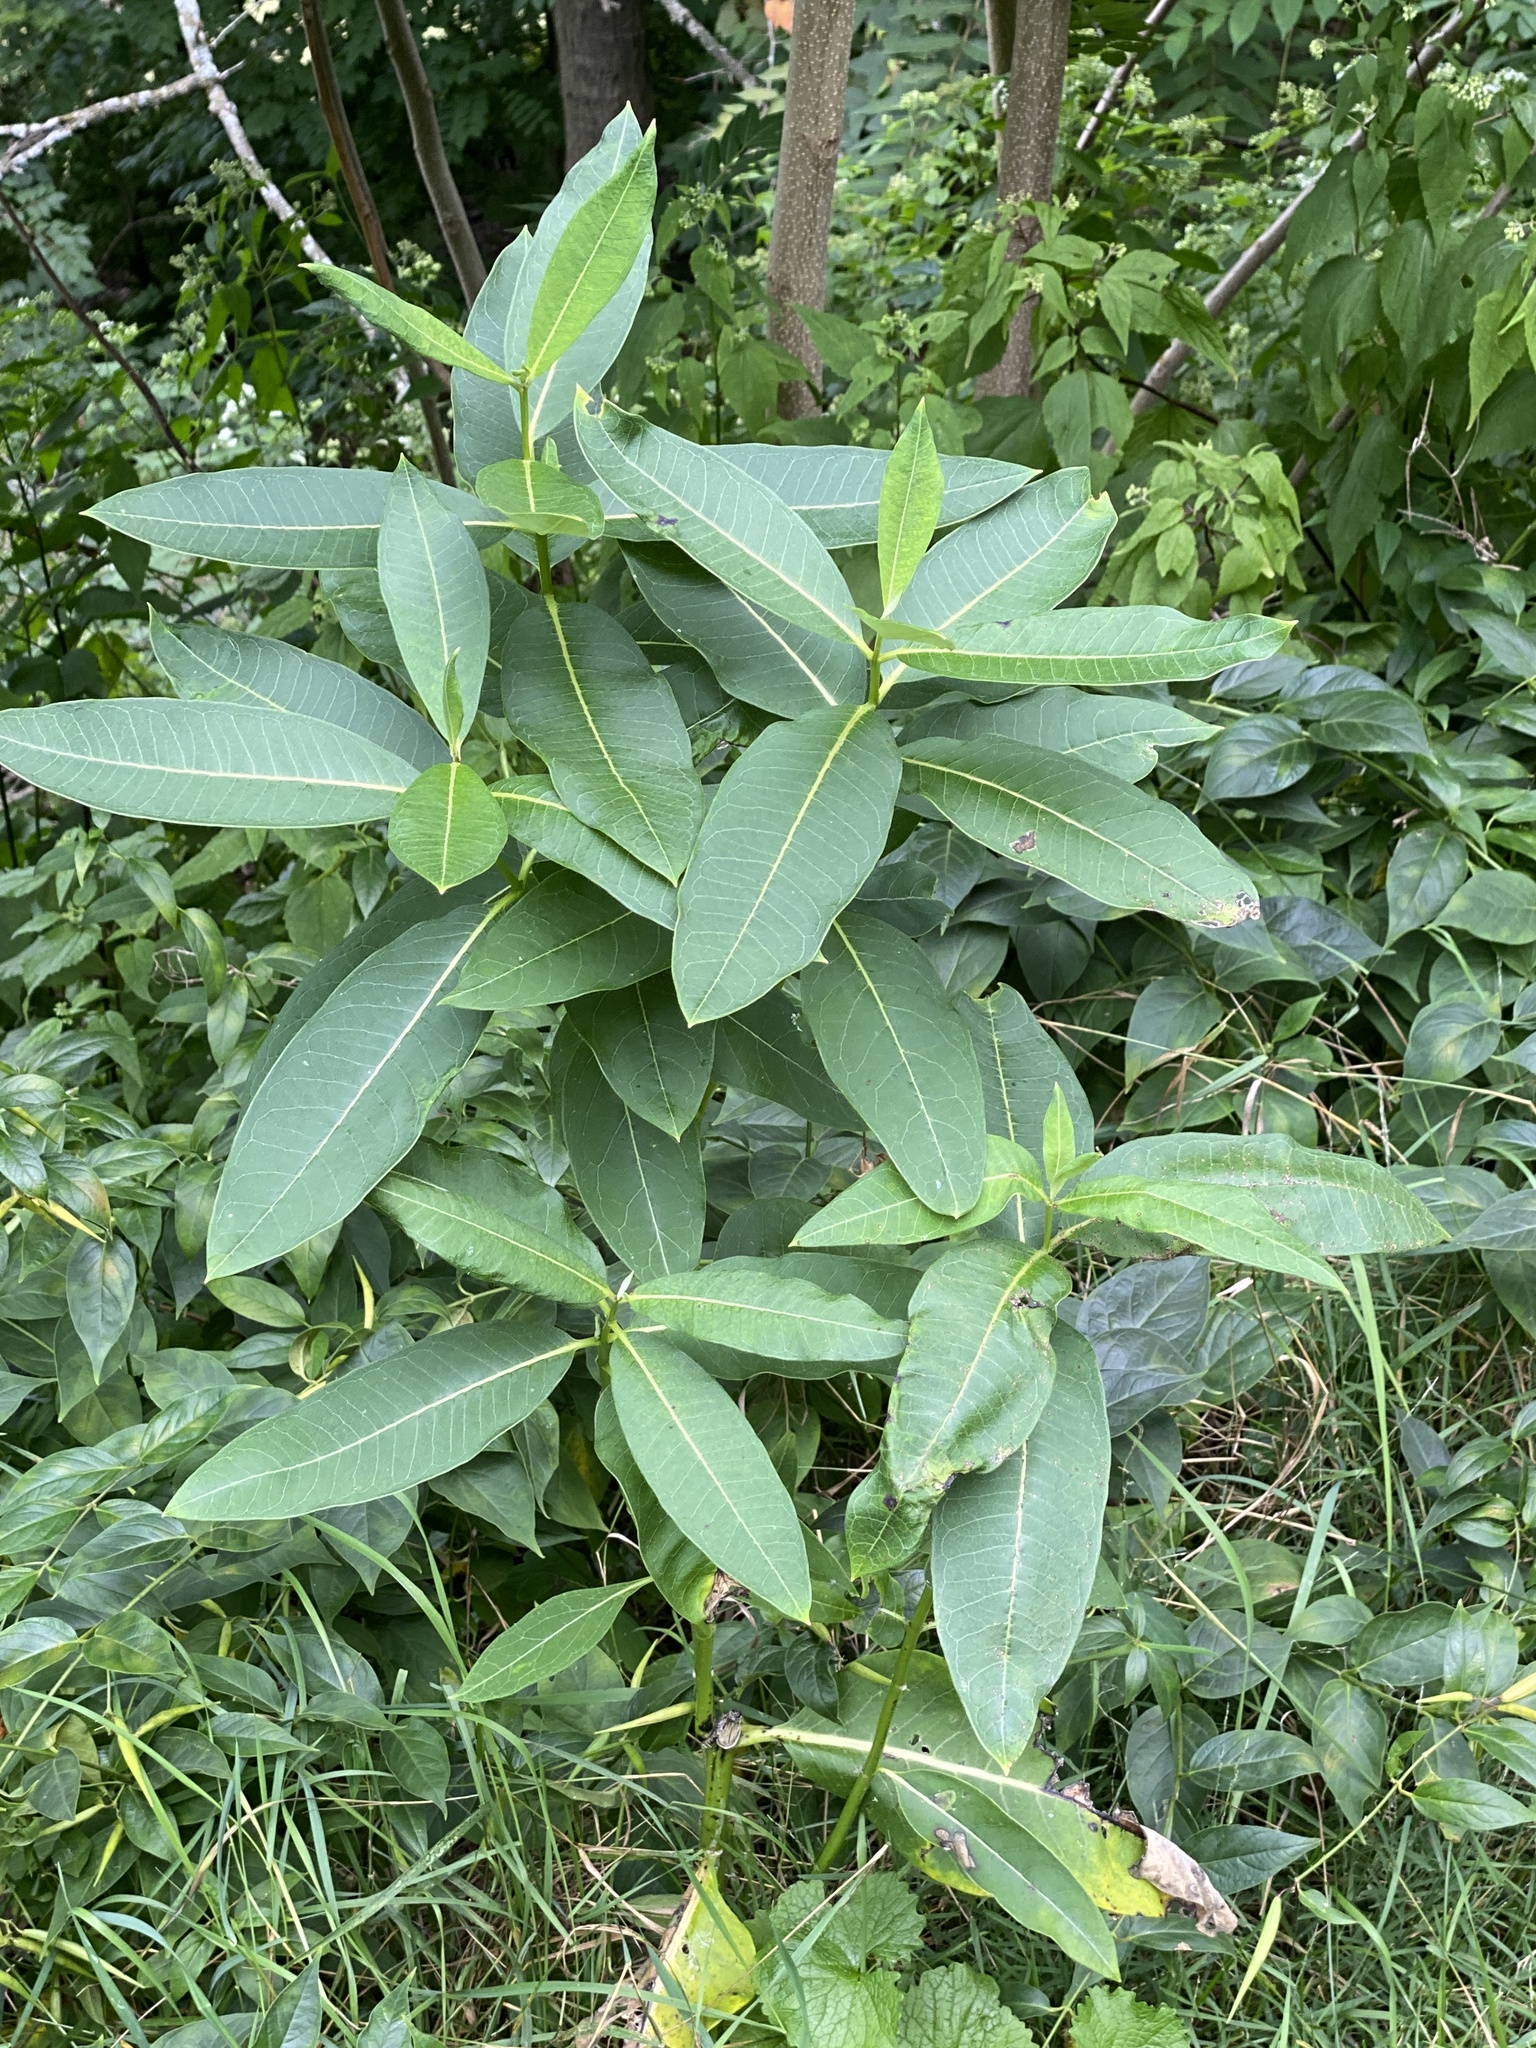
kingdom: Plantae
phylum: Tracheophyta
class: Magnoliopsida
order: Gentianales
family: Apocynaceae
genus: Asclepias
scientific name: Asclepias syriaca
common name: Common milkweed
